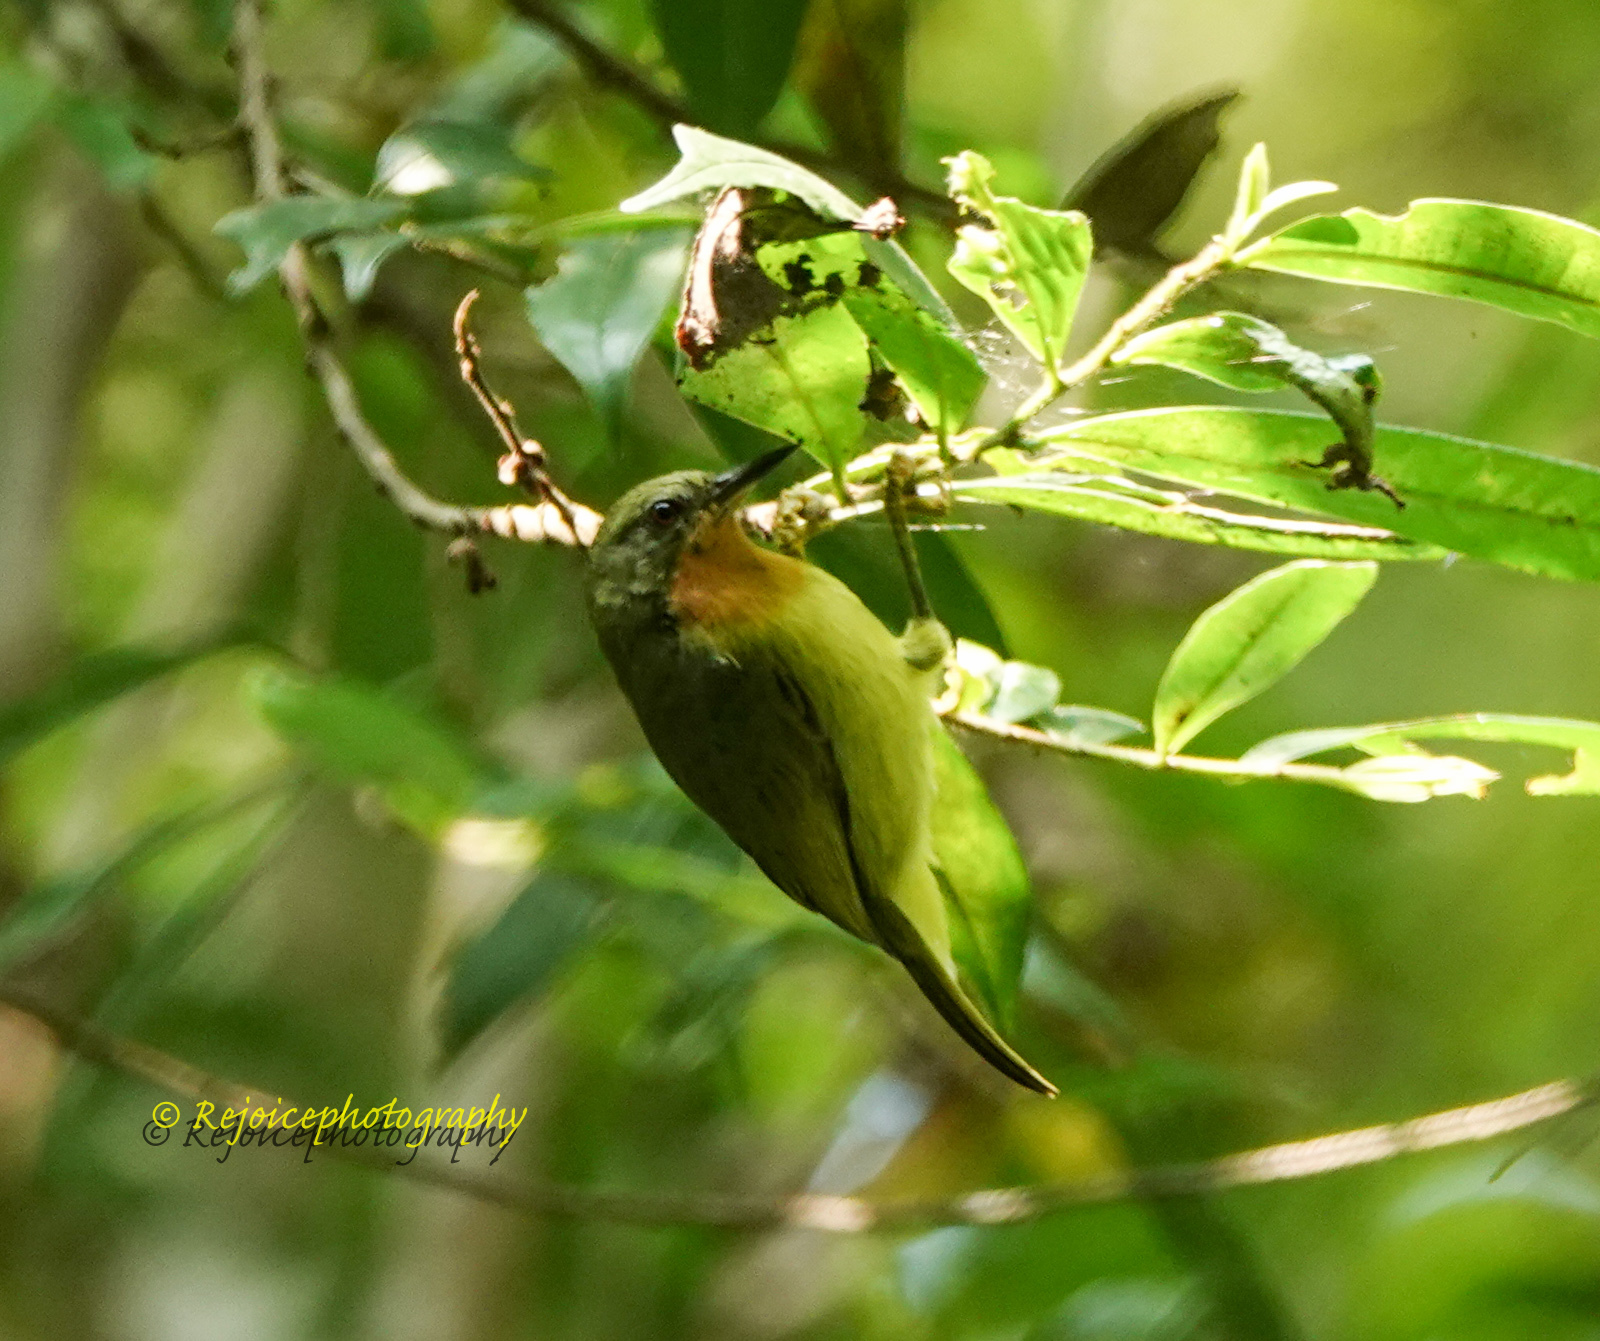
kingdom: Animalia
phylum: Chordata
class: Aves
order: Passeriformes
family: Nectariniidae
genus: Chalcoparia
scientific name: Chalcoparia singalensis
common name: Ruby-cheeked sunbird
